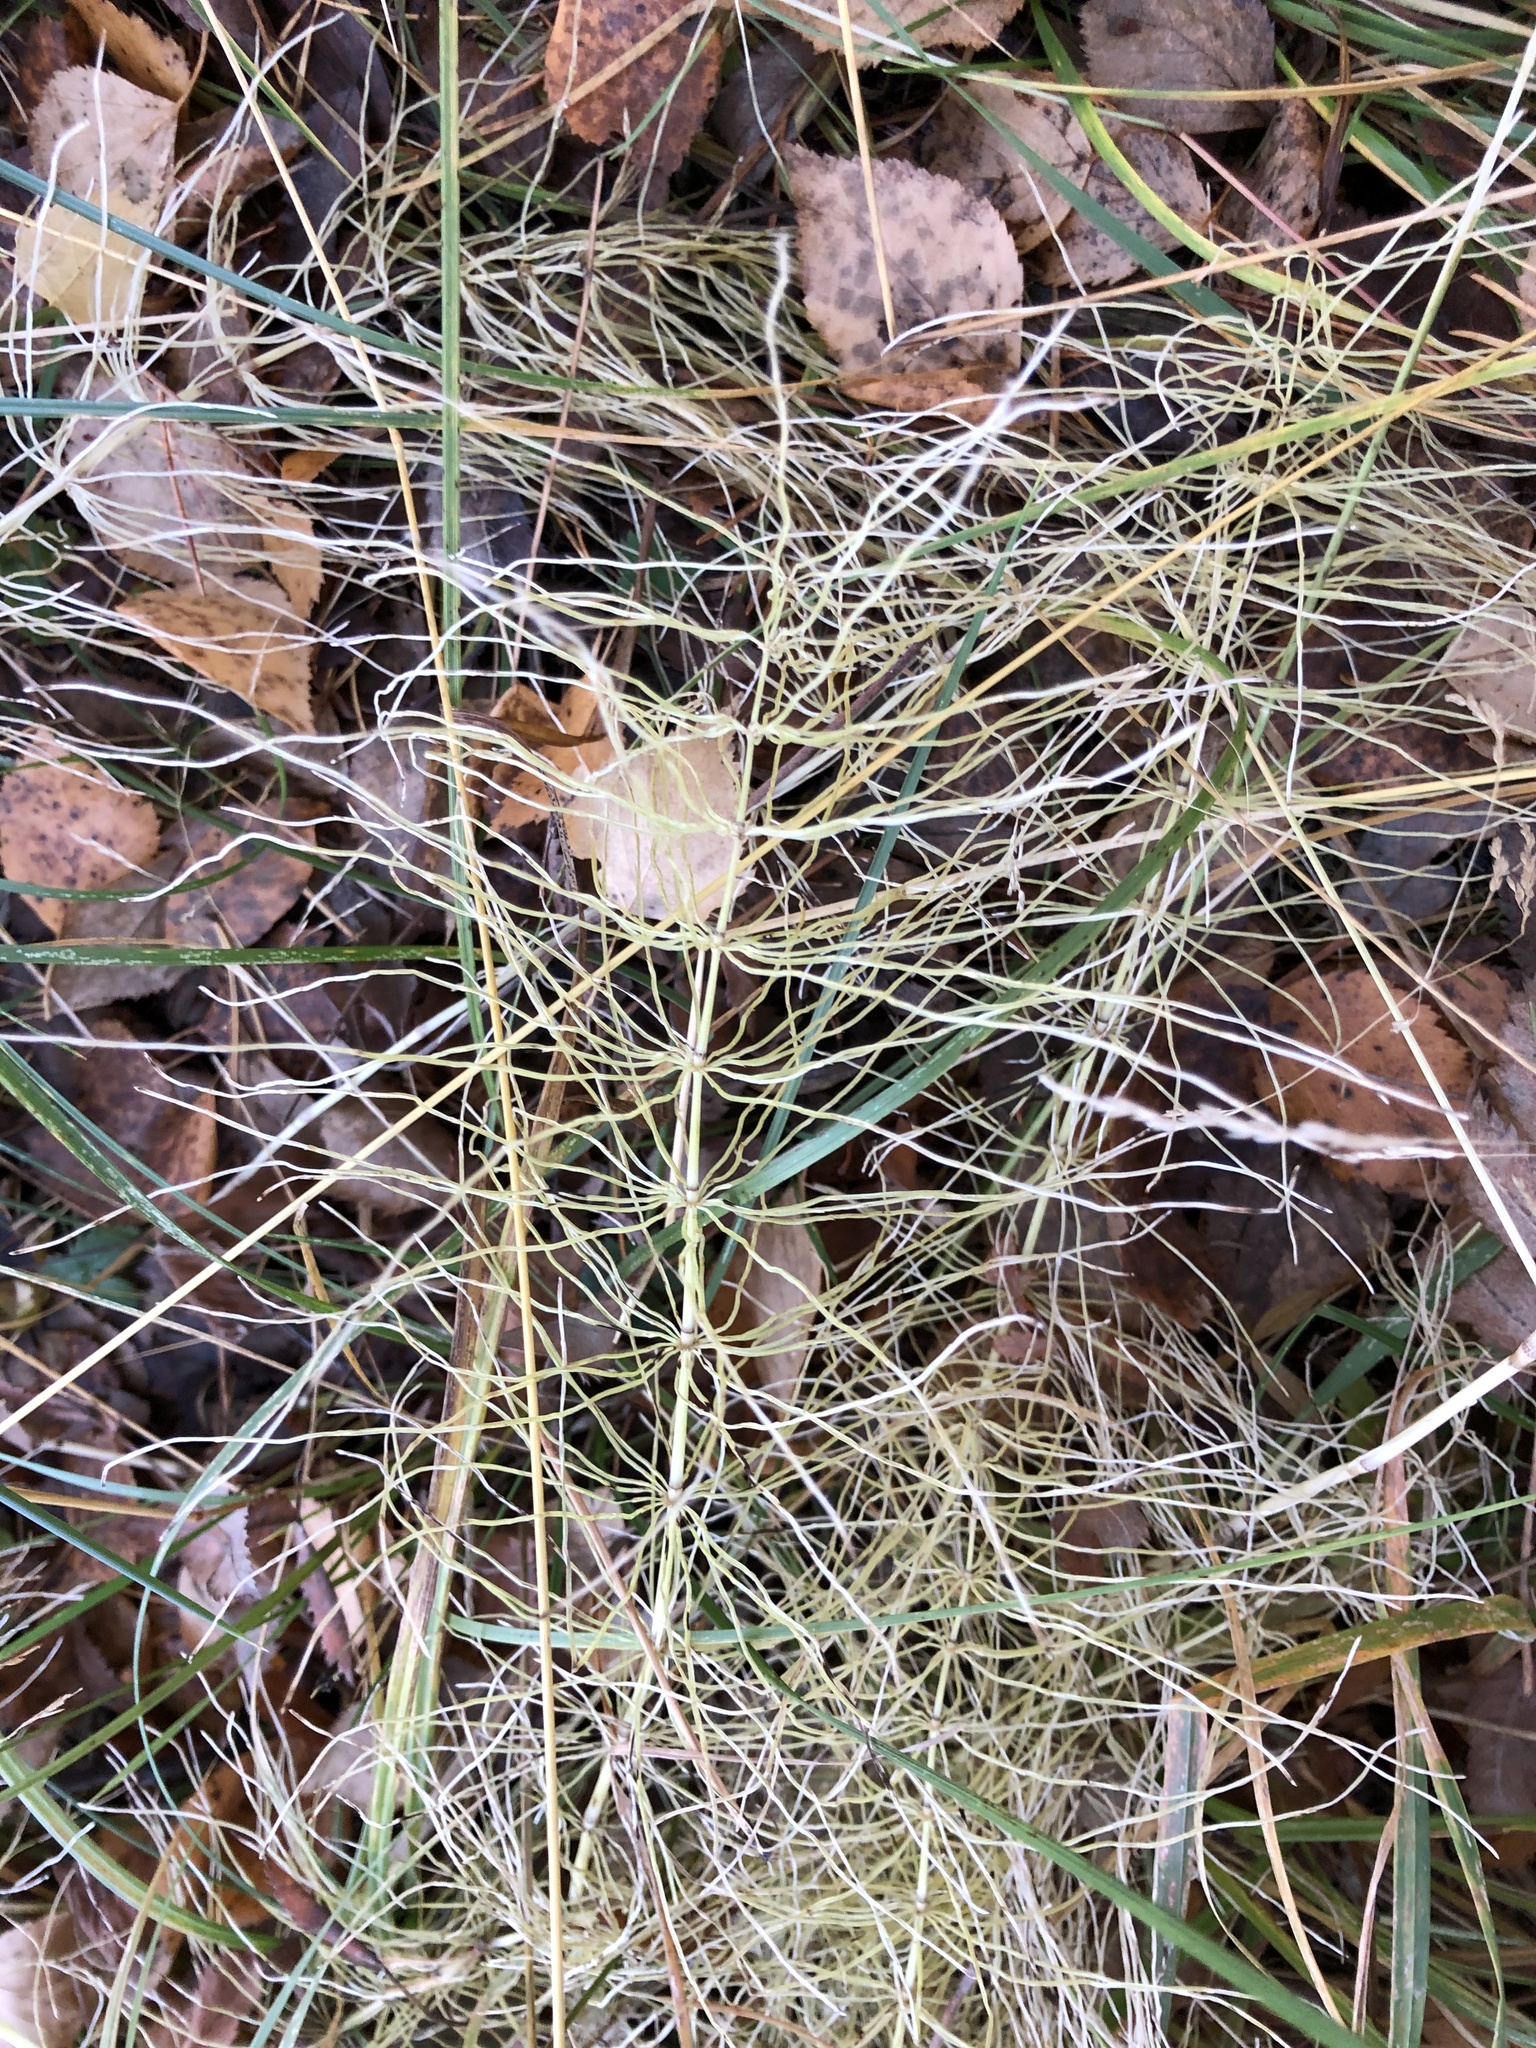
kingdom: Plantae
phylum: Tracheophyta
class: Polypodiopsida
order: Equisetales
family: Equisetaceae
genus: Equisetum
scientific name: Equisetum pratense
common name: Meadow horsetail
